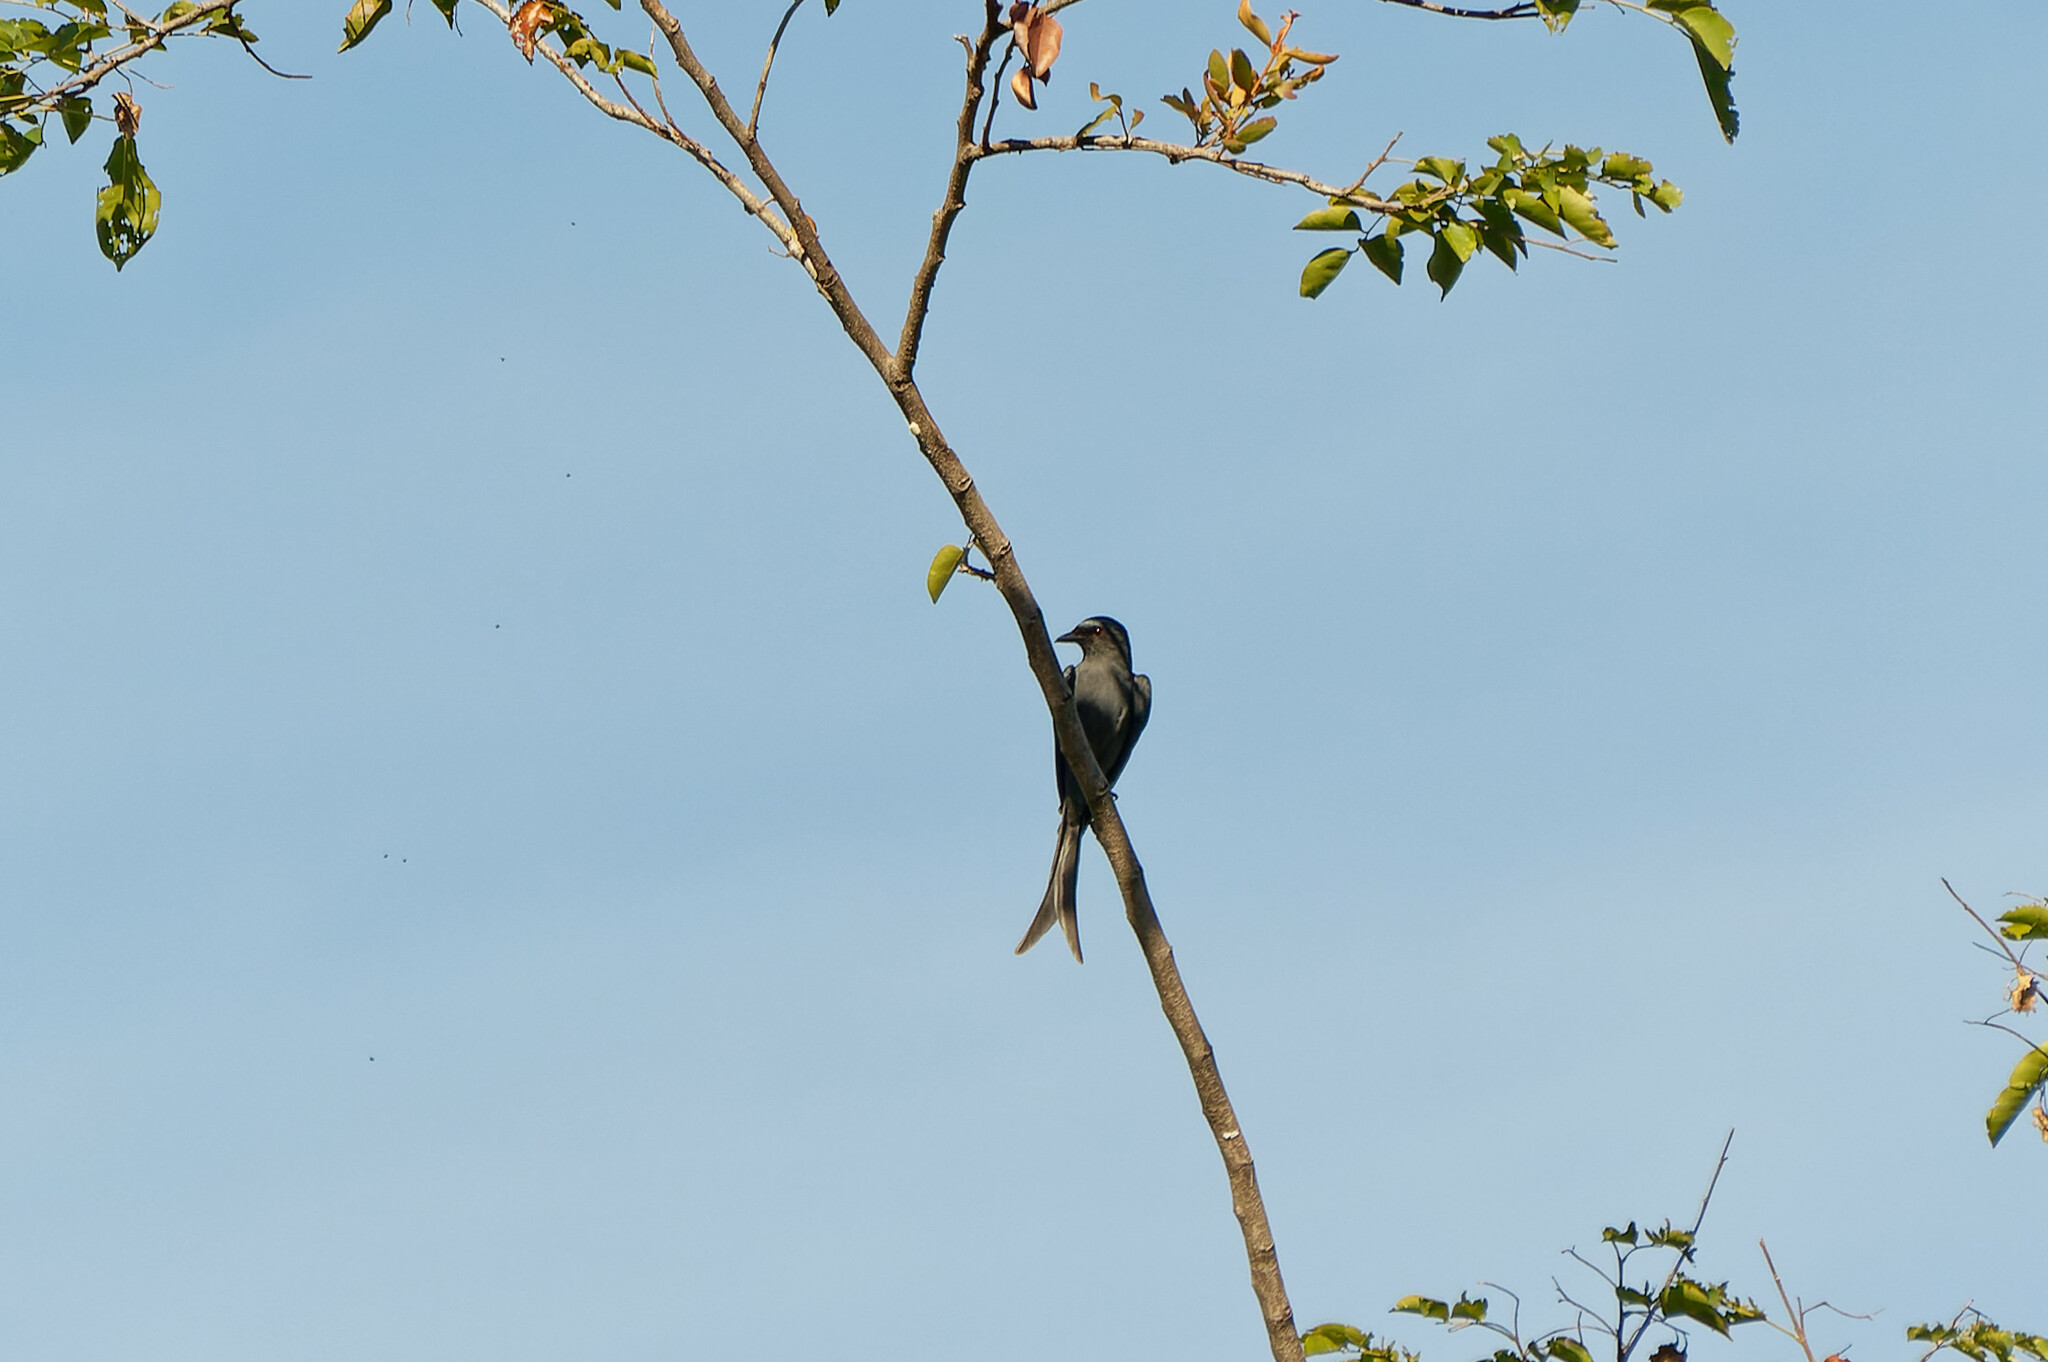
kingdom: Animalia
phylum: Chordata
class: Aves
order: Passeriformes
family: Dicruridae
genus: Dicrurus
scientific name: Dicrurus leucophaeus
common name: Ashy drongo
